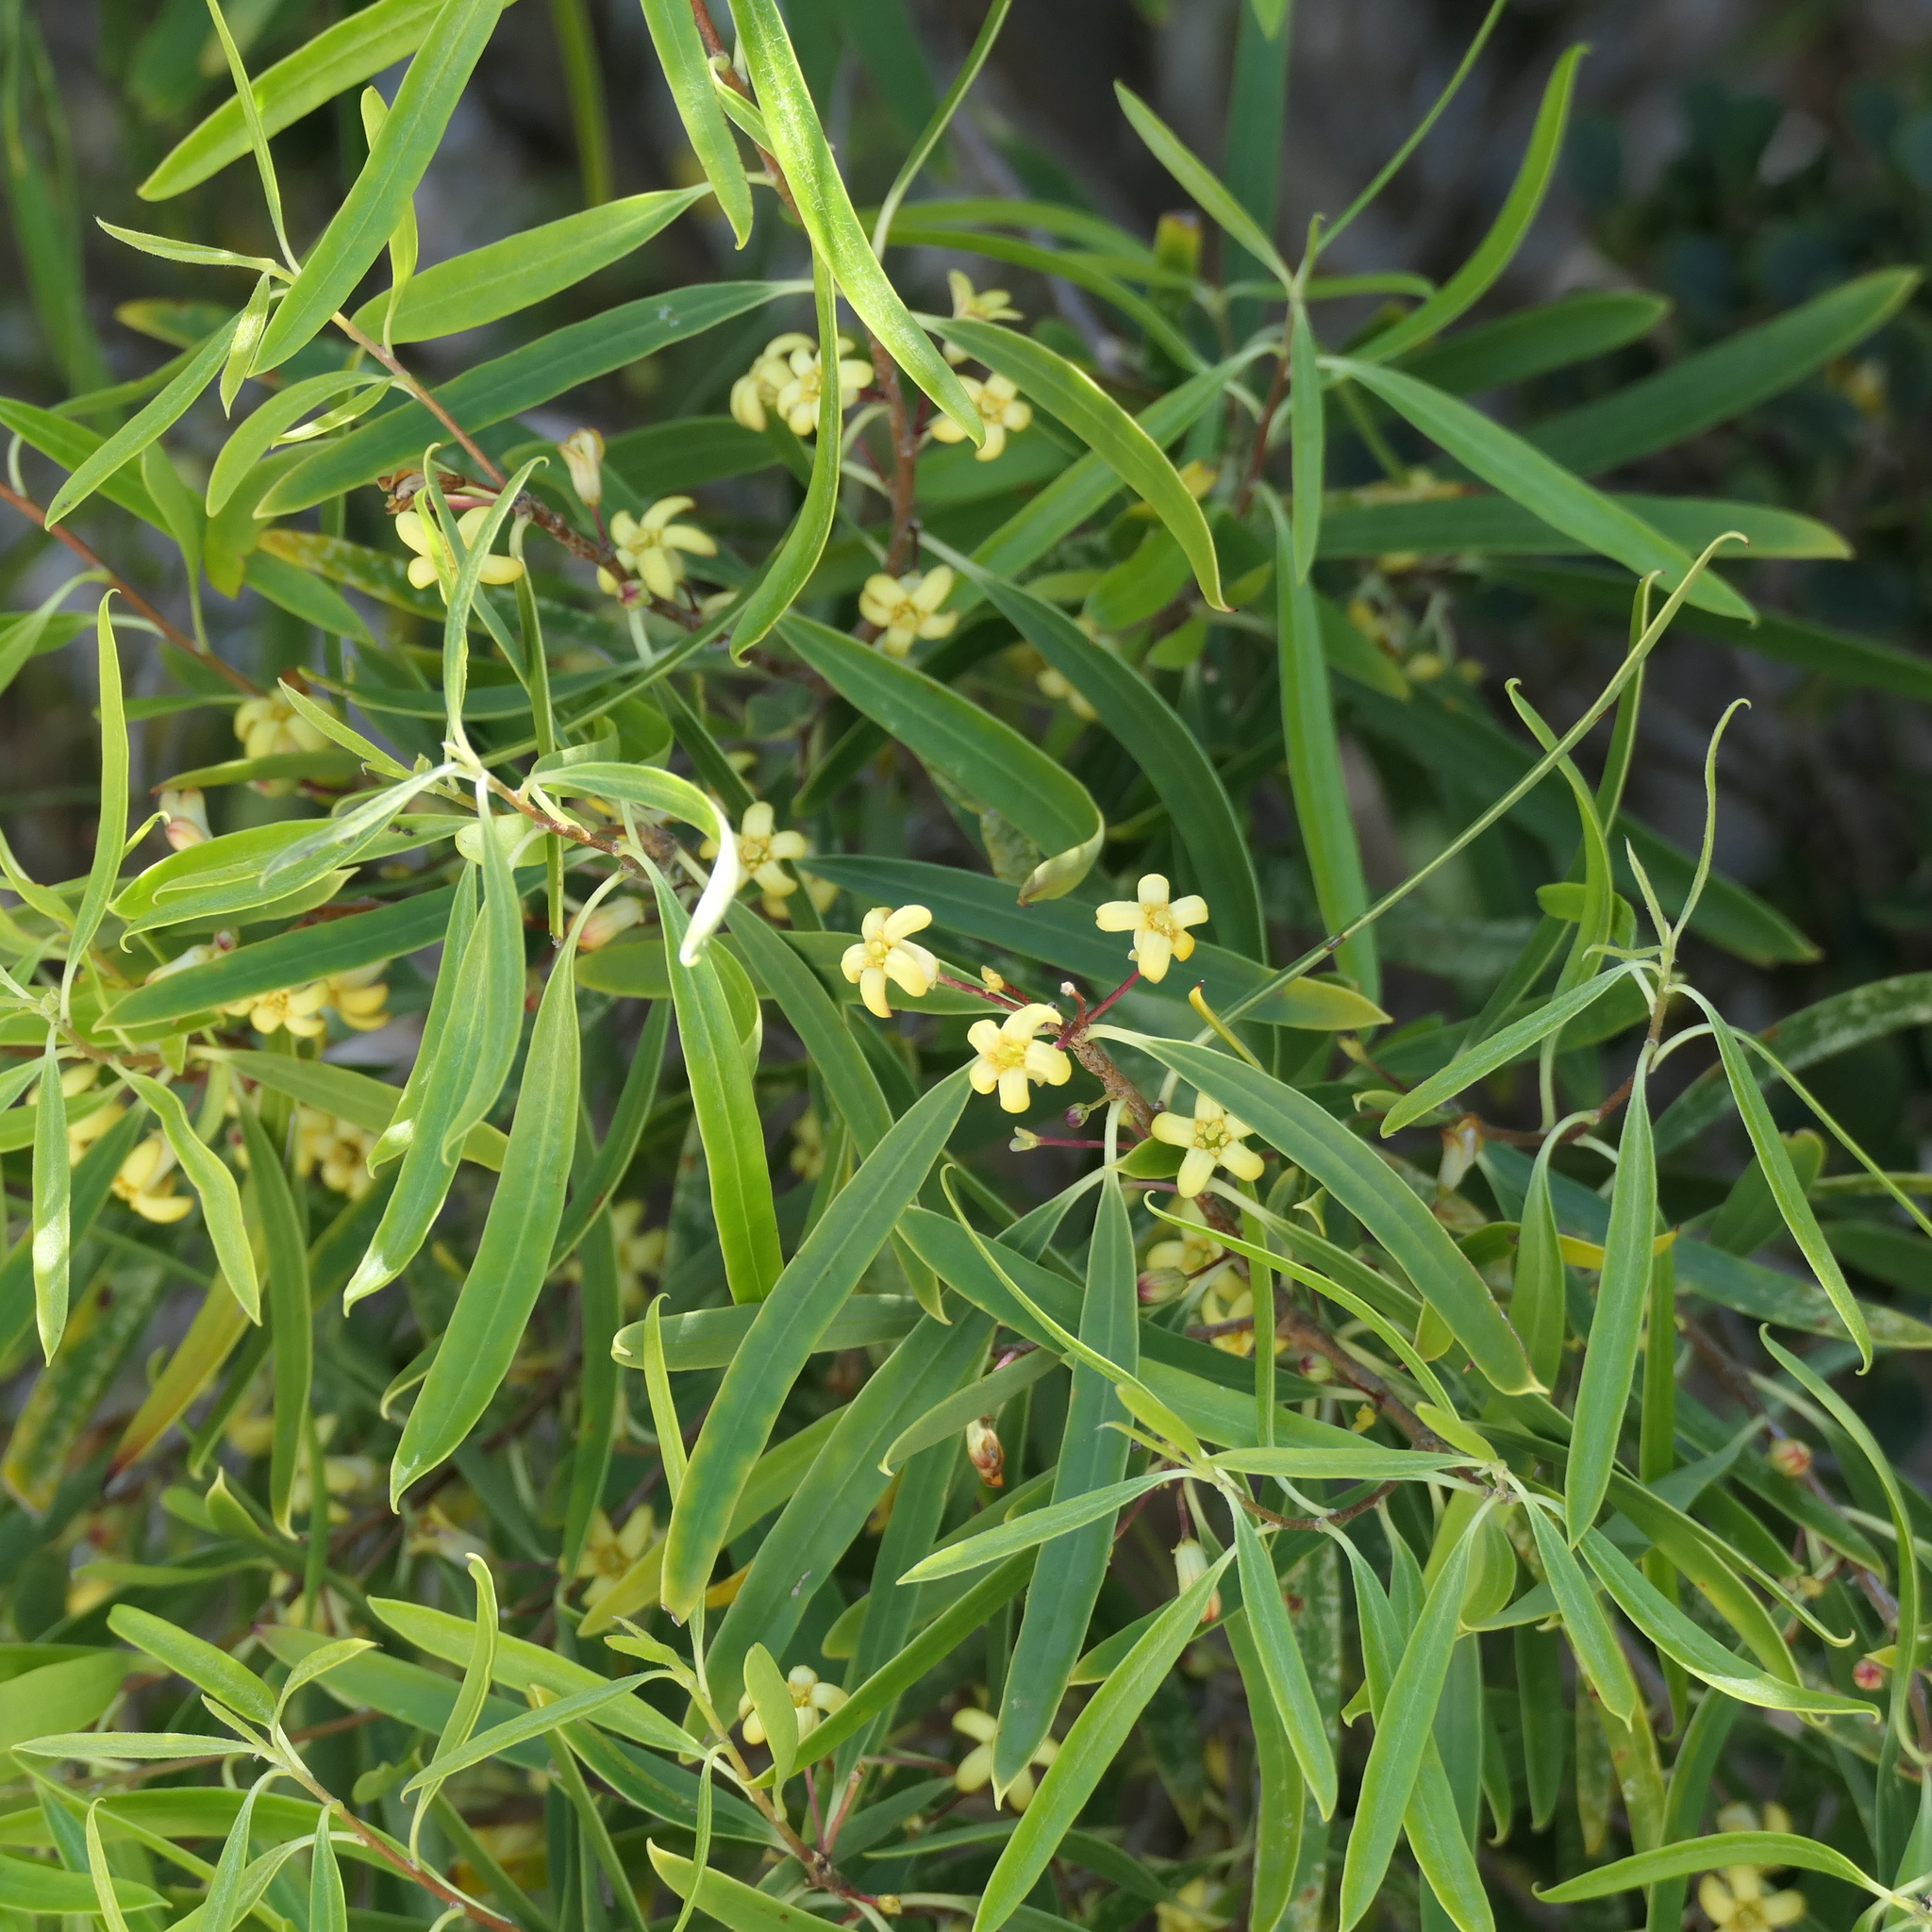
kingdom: Plantae
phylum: Tracheophyta
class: Magnoliopsida
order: Apiales
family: Pittosporaceae
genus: Pittosporum
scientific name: Pittosporum angustifolium
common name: Weeping pittosporum
